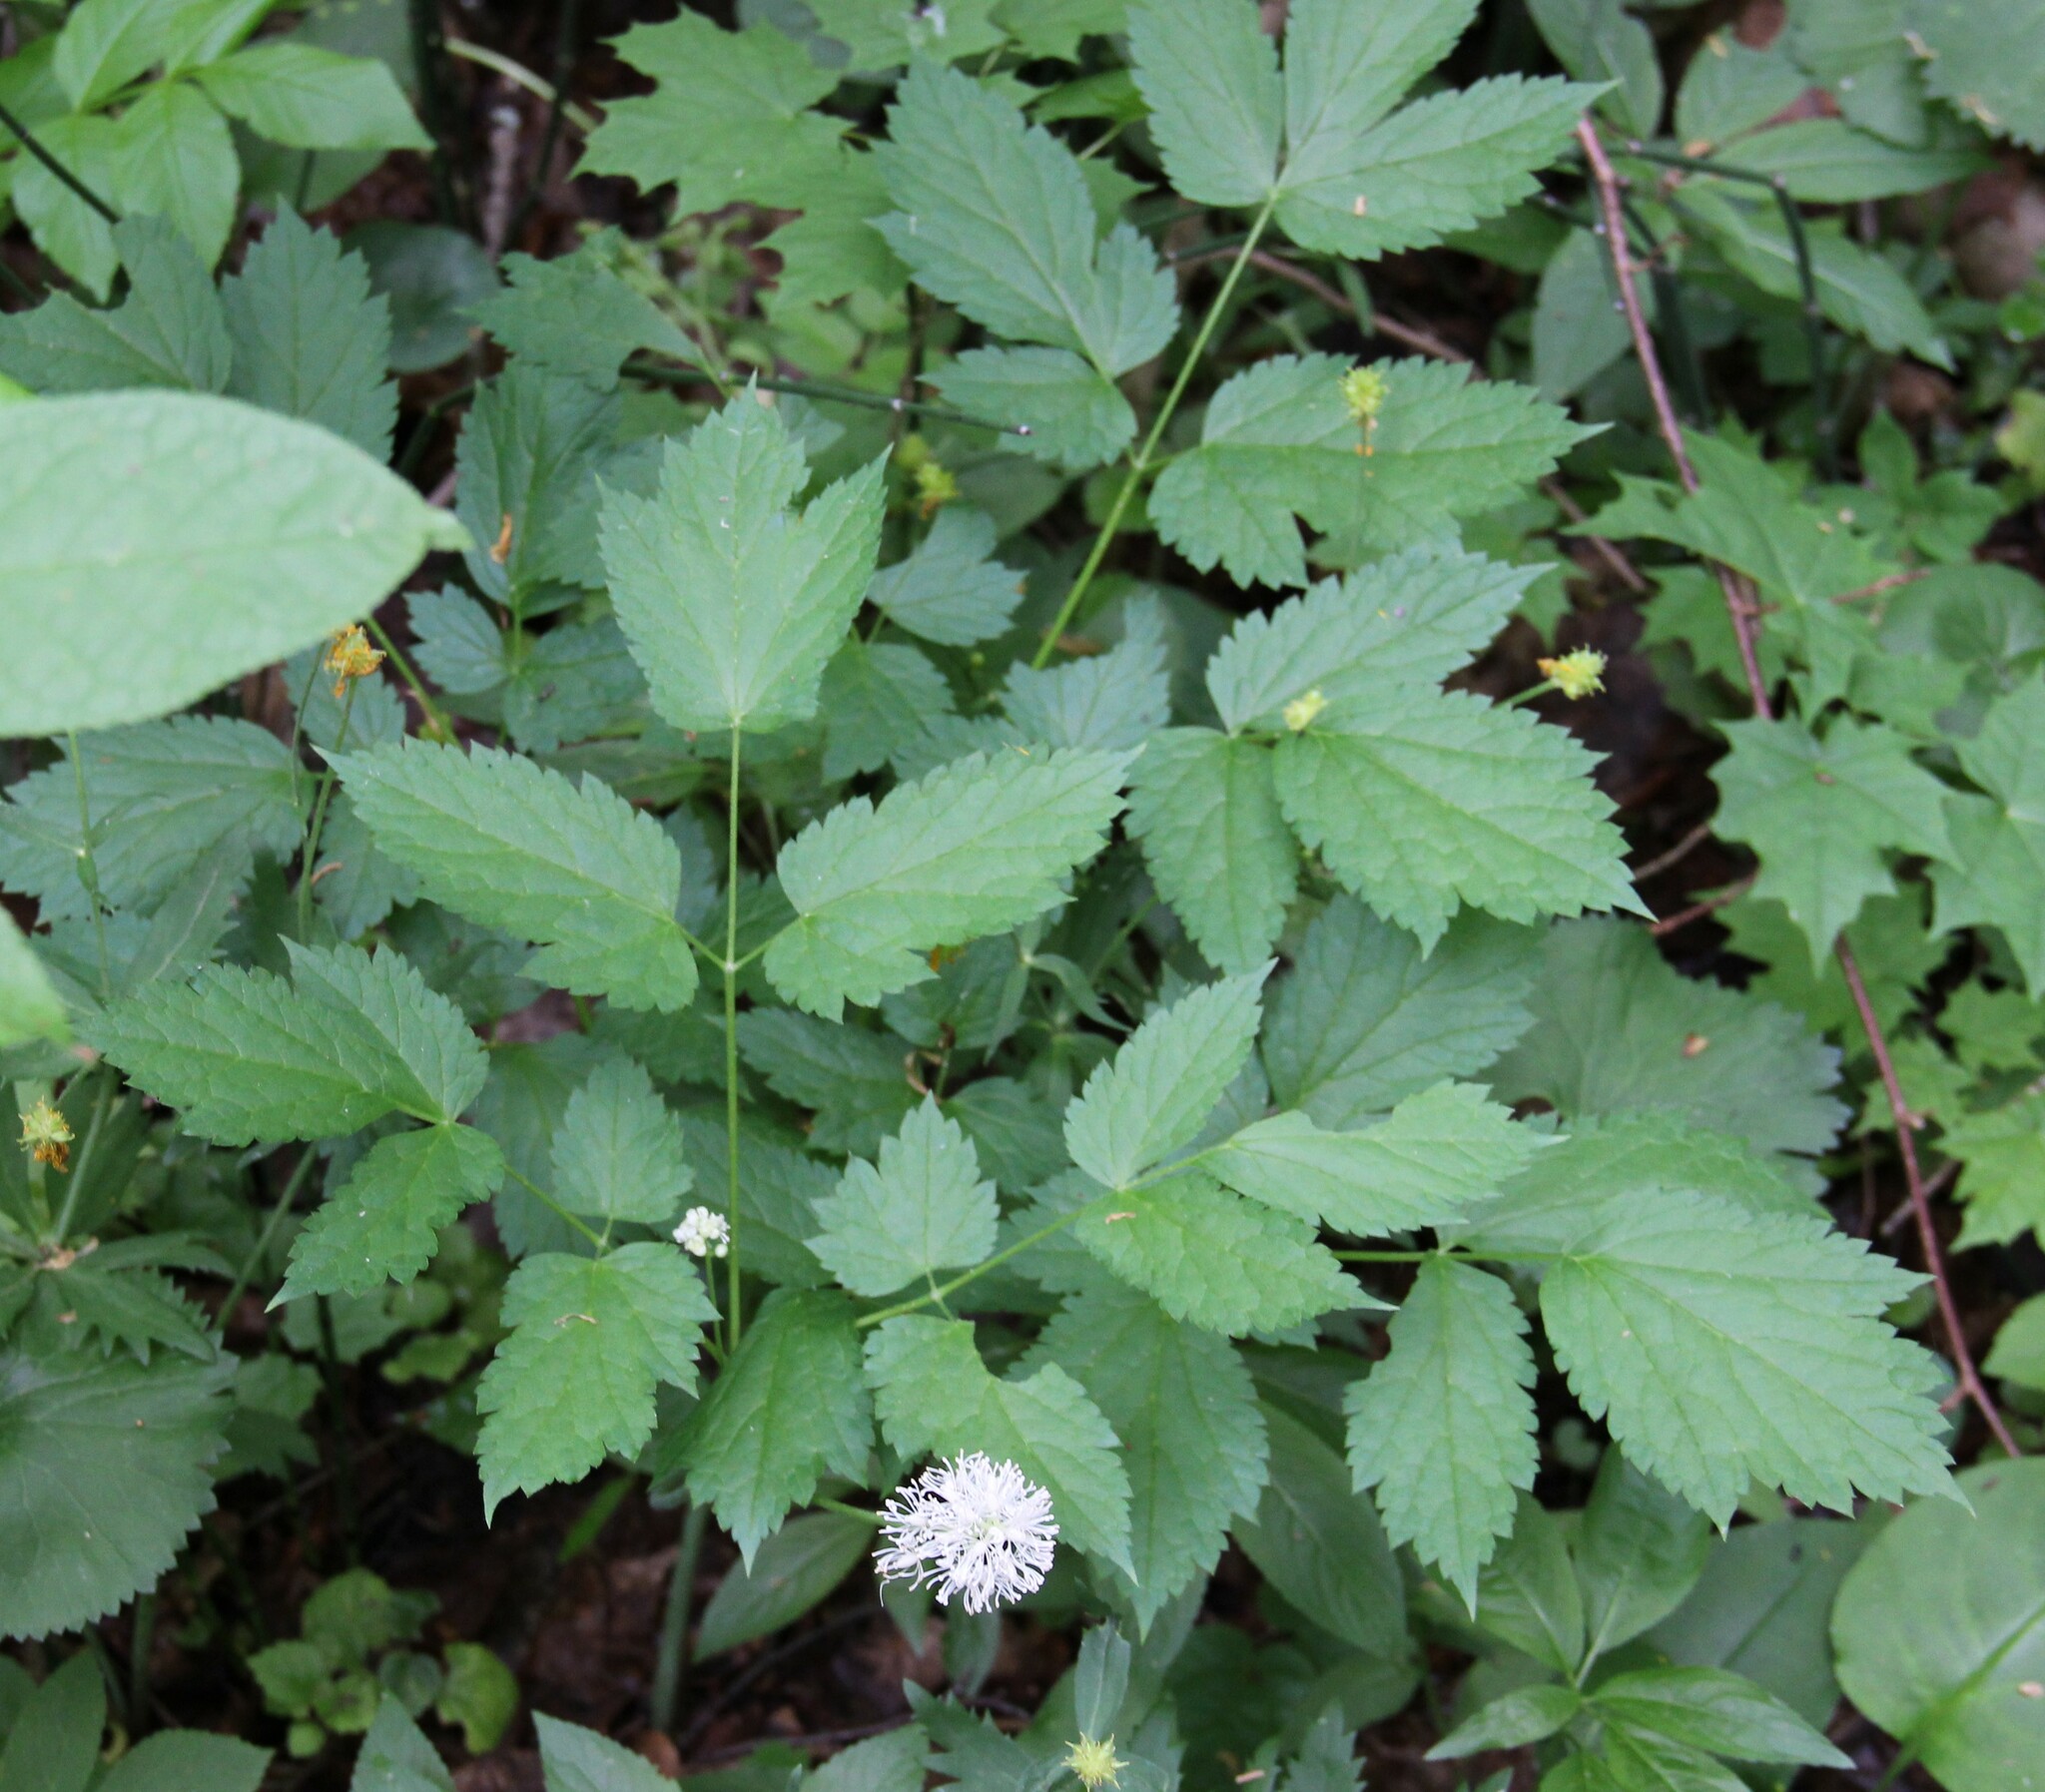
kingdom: Plantae
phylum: Tracheophyta
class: Magnoliopsida
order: Ranunculales
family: Ranunculaceae
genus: Actaea
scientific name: Actaea spicata
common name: Baneberry
